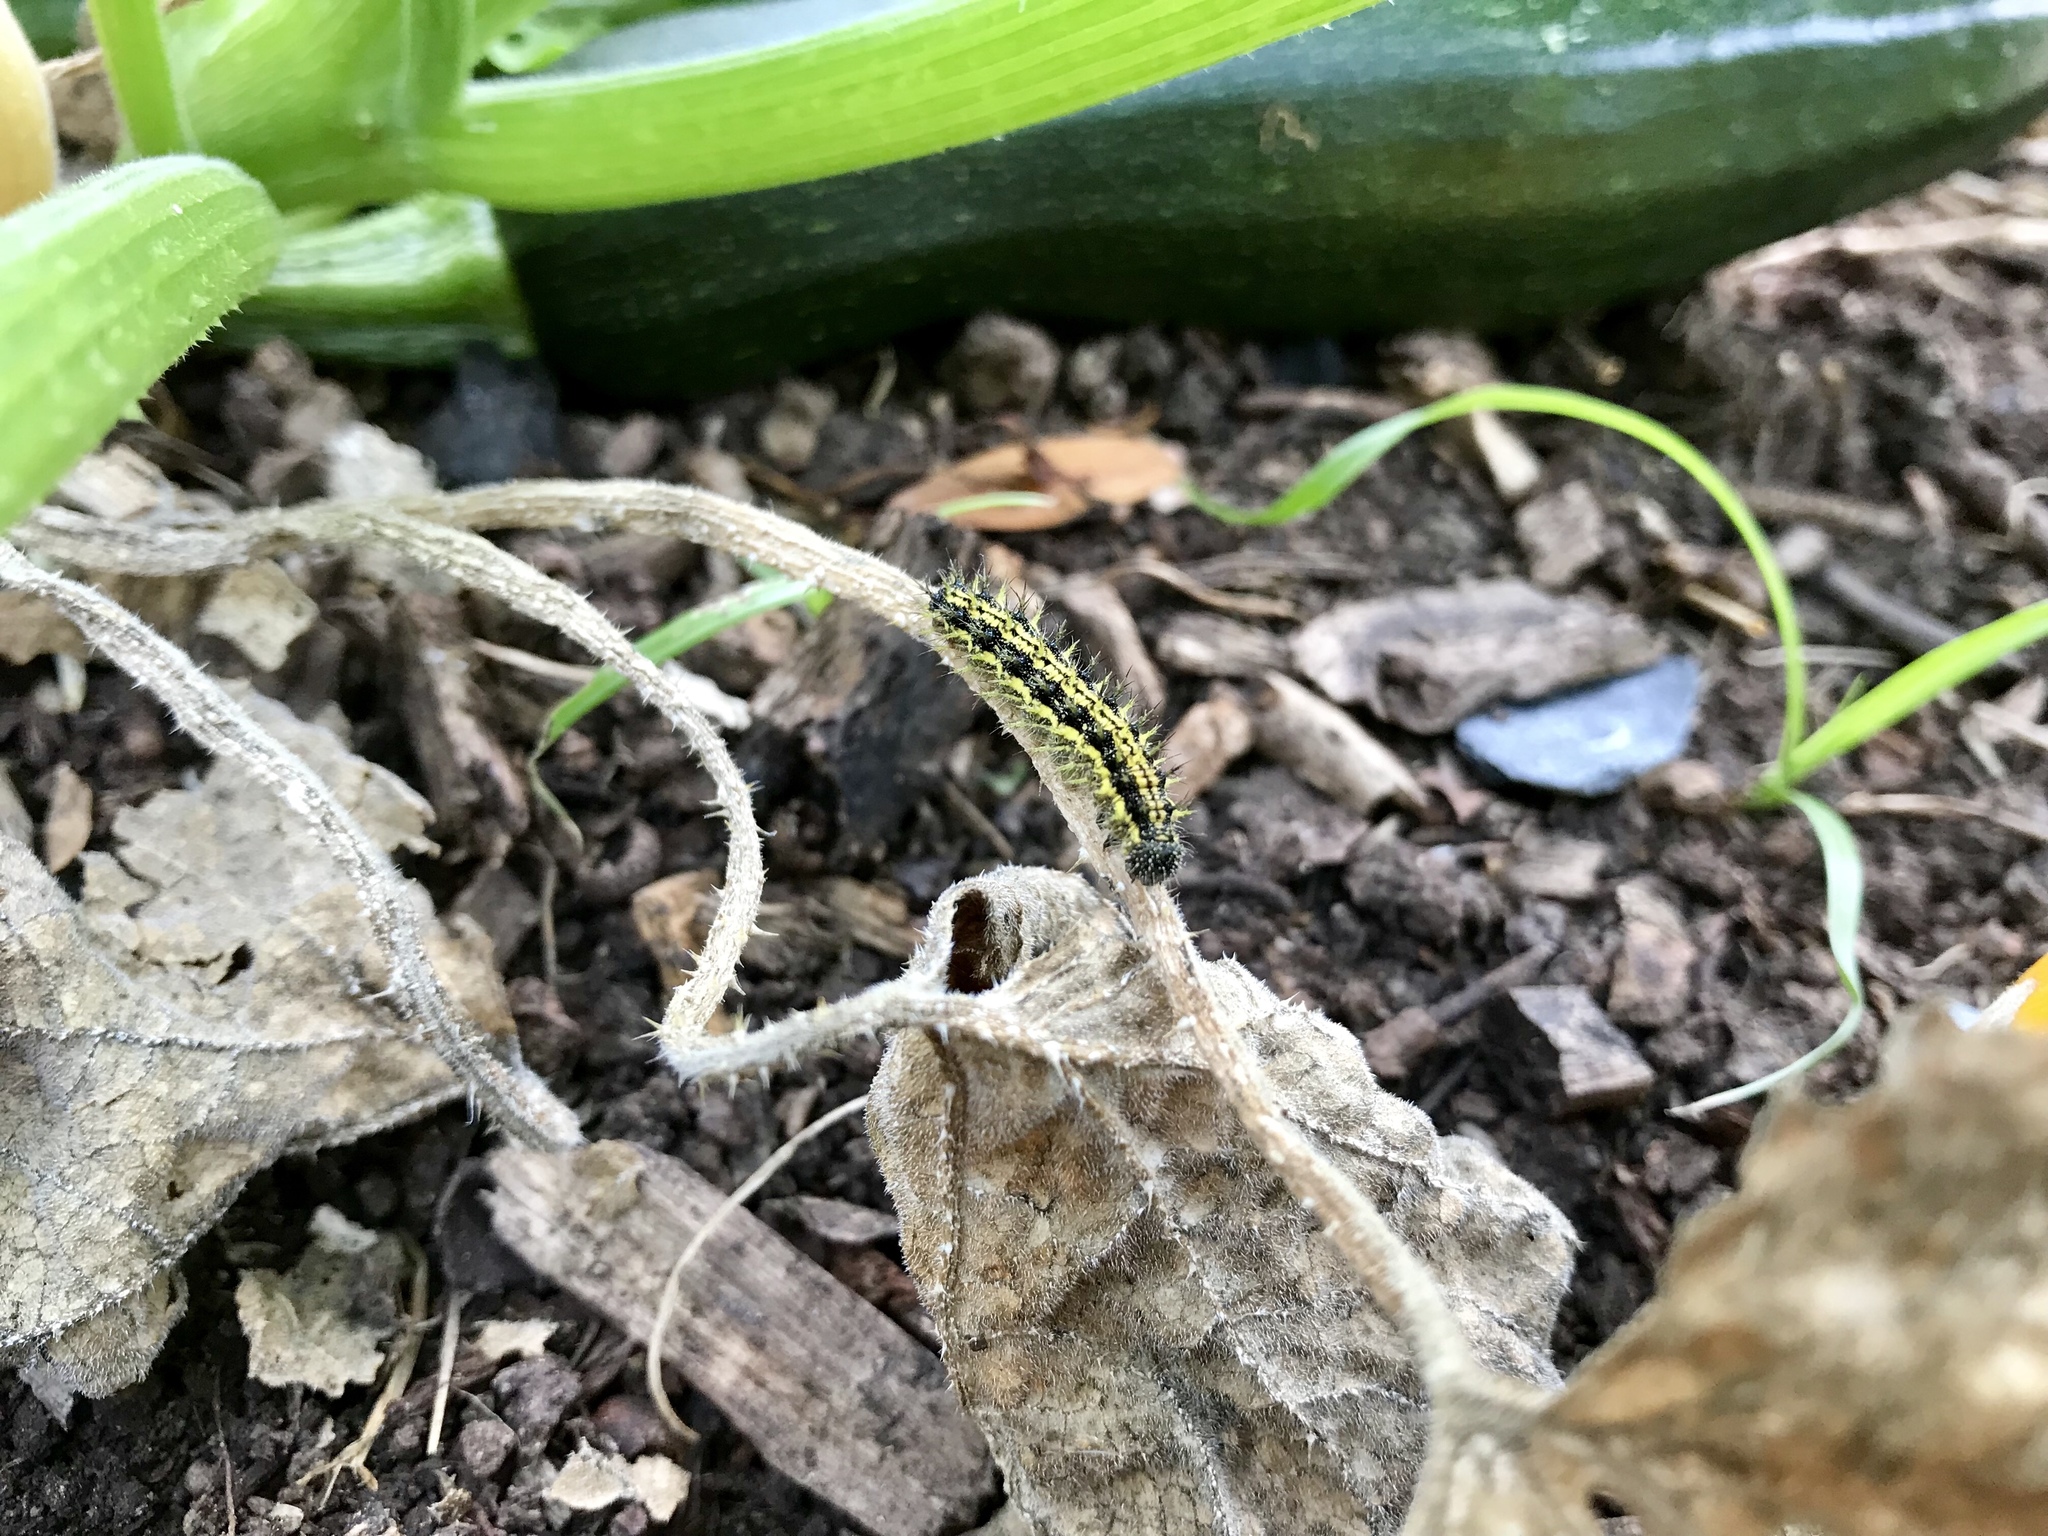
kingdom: Animalia
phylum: Arthropoda
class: Insecta
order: Lepidoptera
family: Nymphalidae
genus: Aglais
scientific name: Aglais urticae
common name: Small tortoiseshell
